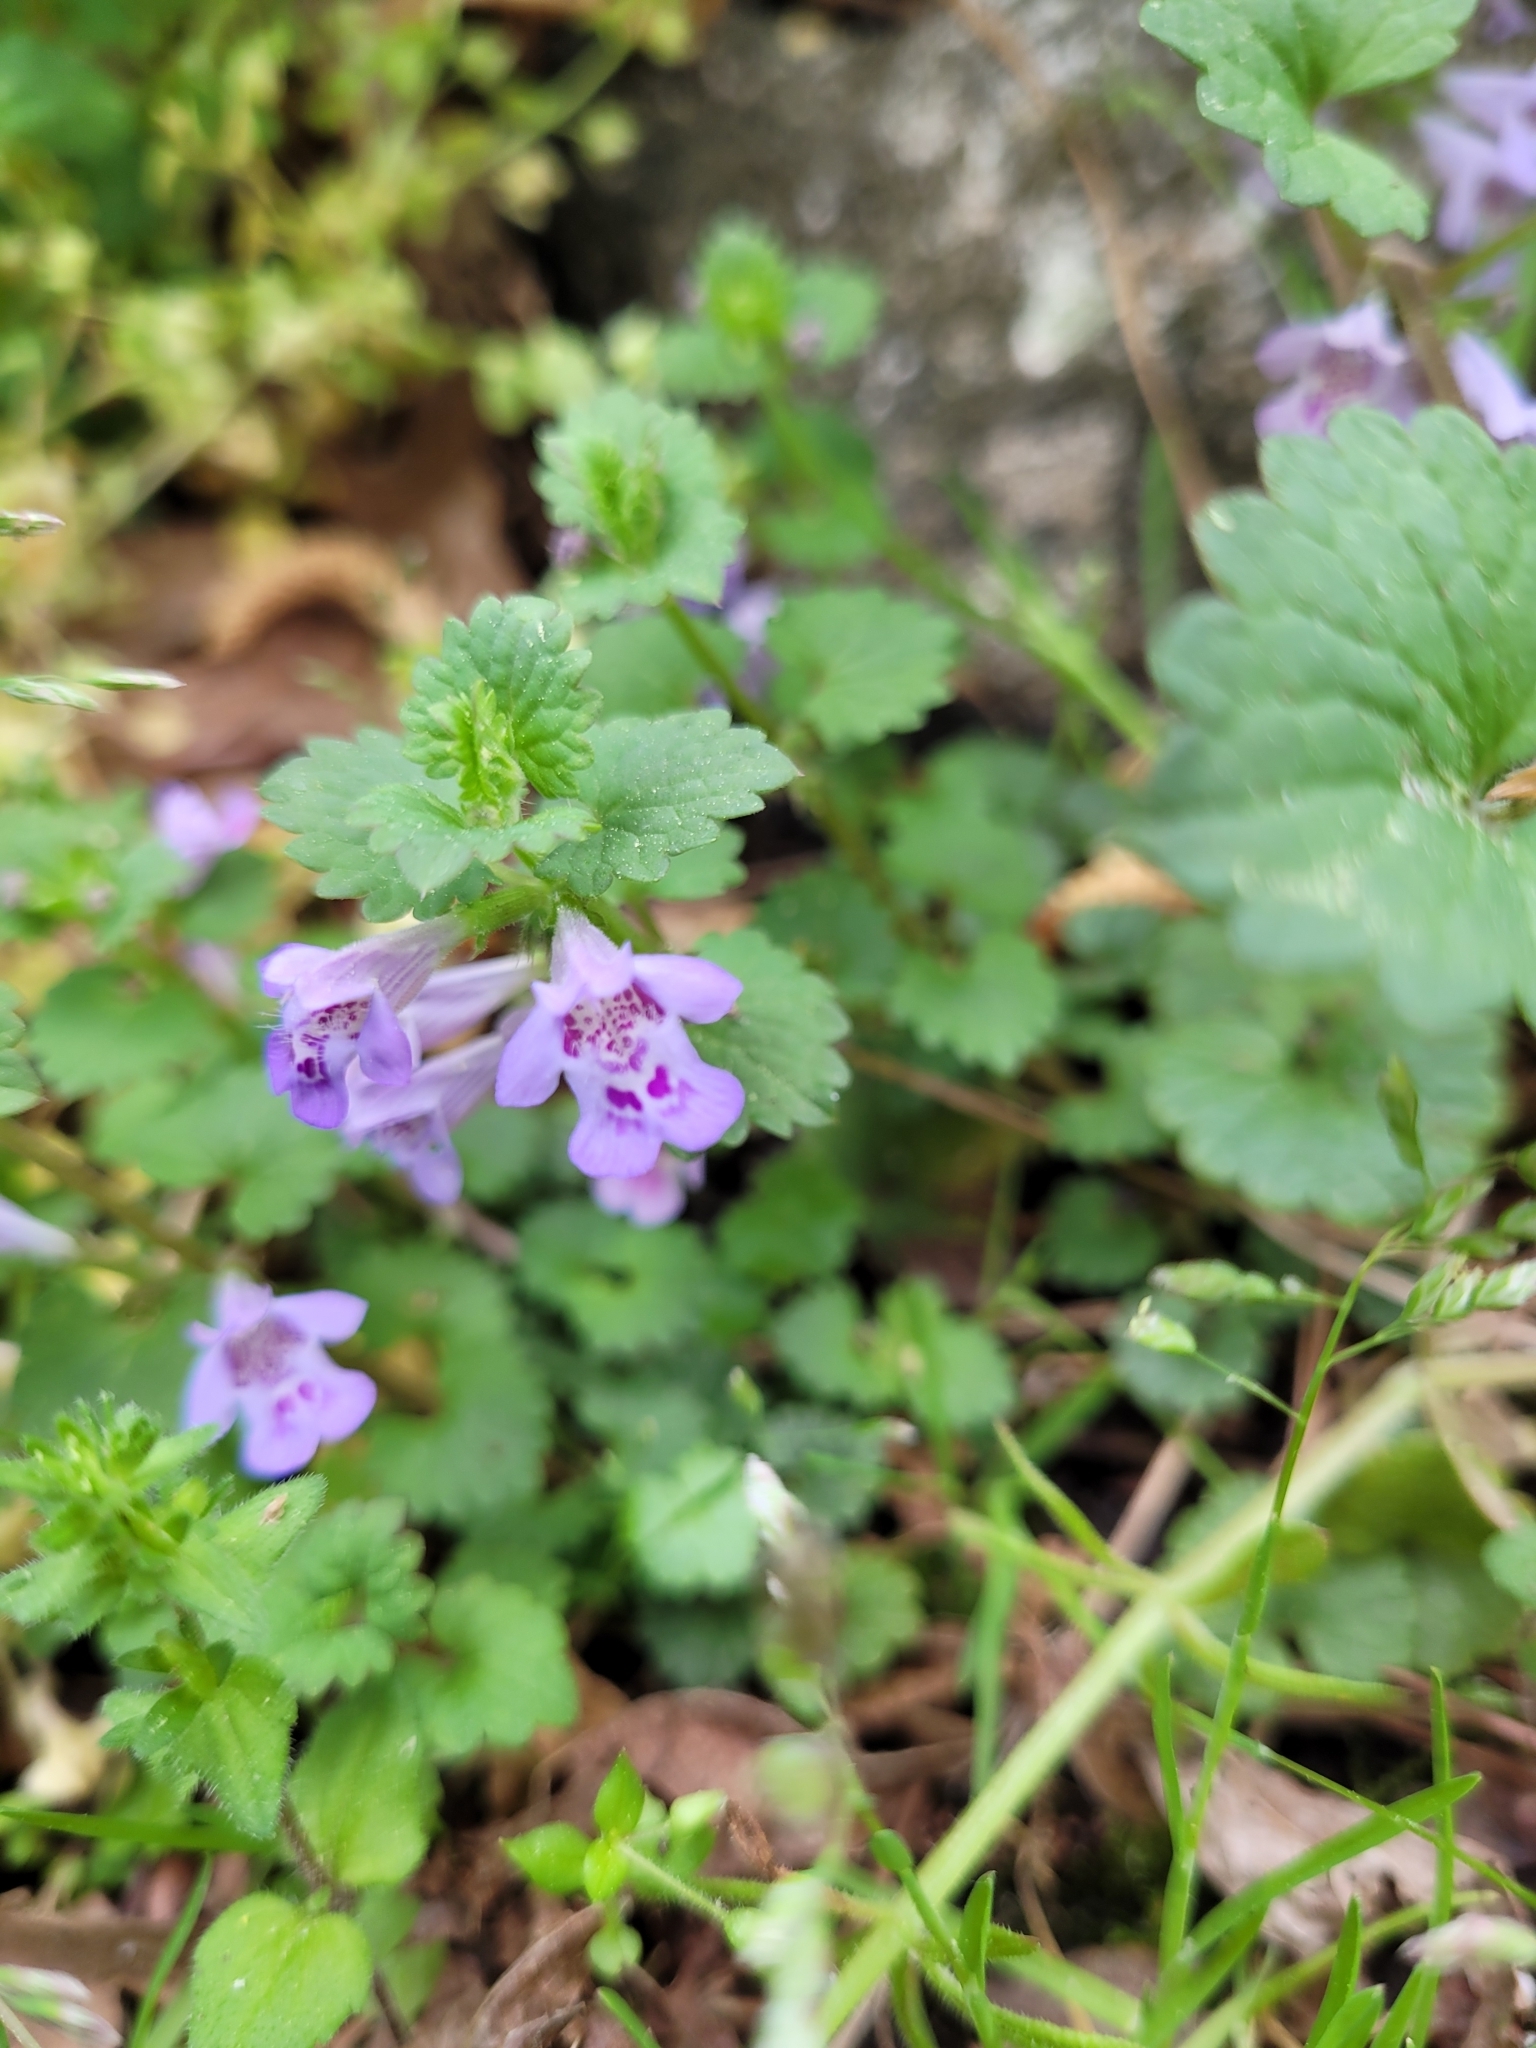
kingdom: Plantae
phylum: Tracheophyta
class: Magnoliopsida
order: Lamiales
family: Lamiaceae
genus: Glechoma
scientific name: Glechoma hederacea
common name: Ground ivy
